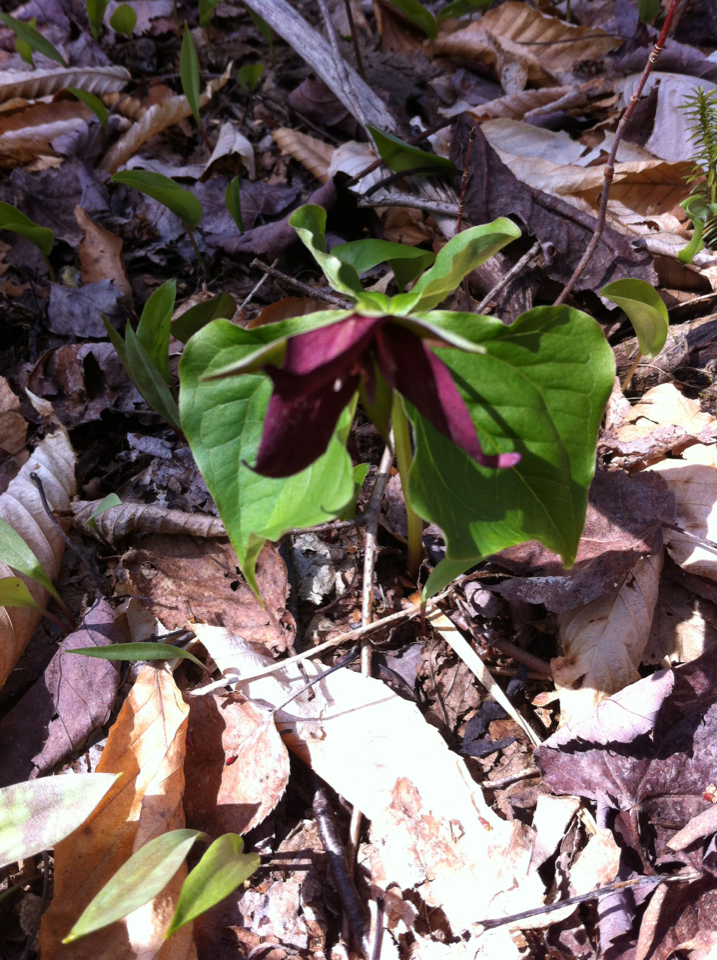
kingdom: Plantae
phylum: Tracheophyta
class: Liliopsida
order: Liliales
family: Melanthiaceae
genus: Trillium
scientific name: Trillium erectum
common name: Purple trillium
